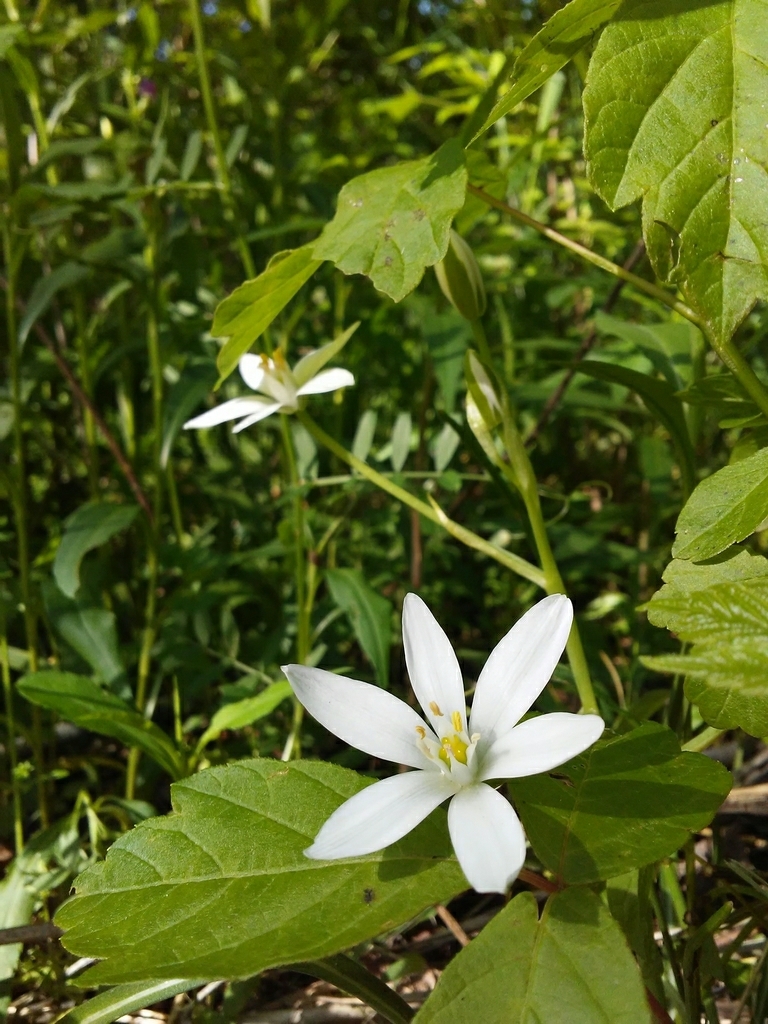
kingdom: Plantae
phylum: Tracheophyta
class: Liliopsida
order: Asparagales
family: Asparagaceae
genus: Ornithogalum
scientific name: Ornithogalum umbellatum
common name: Garden star-of-bethlehem
